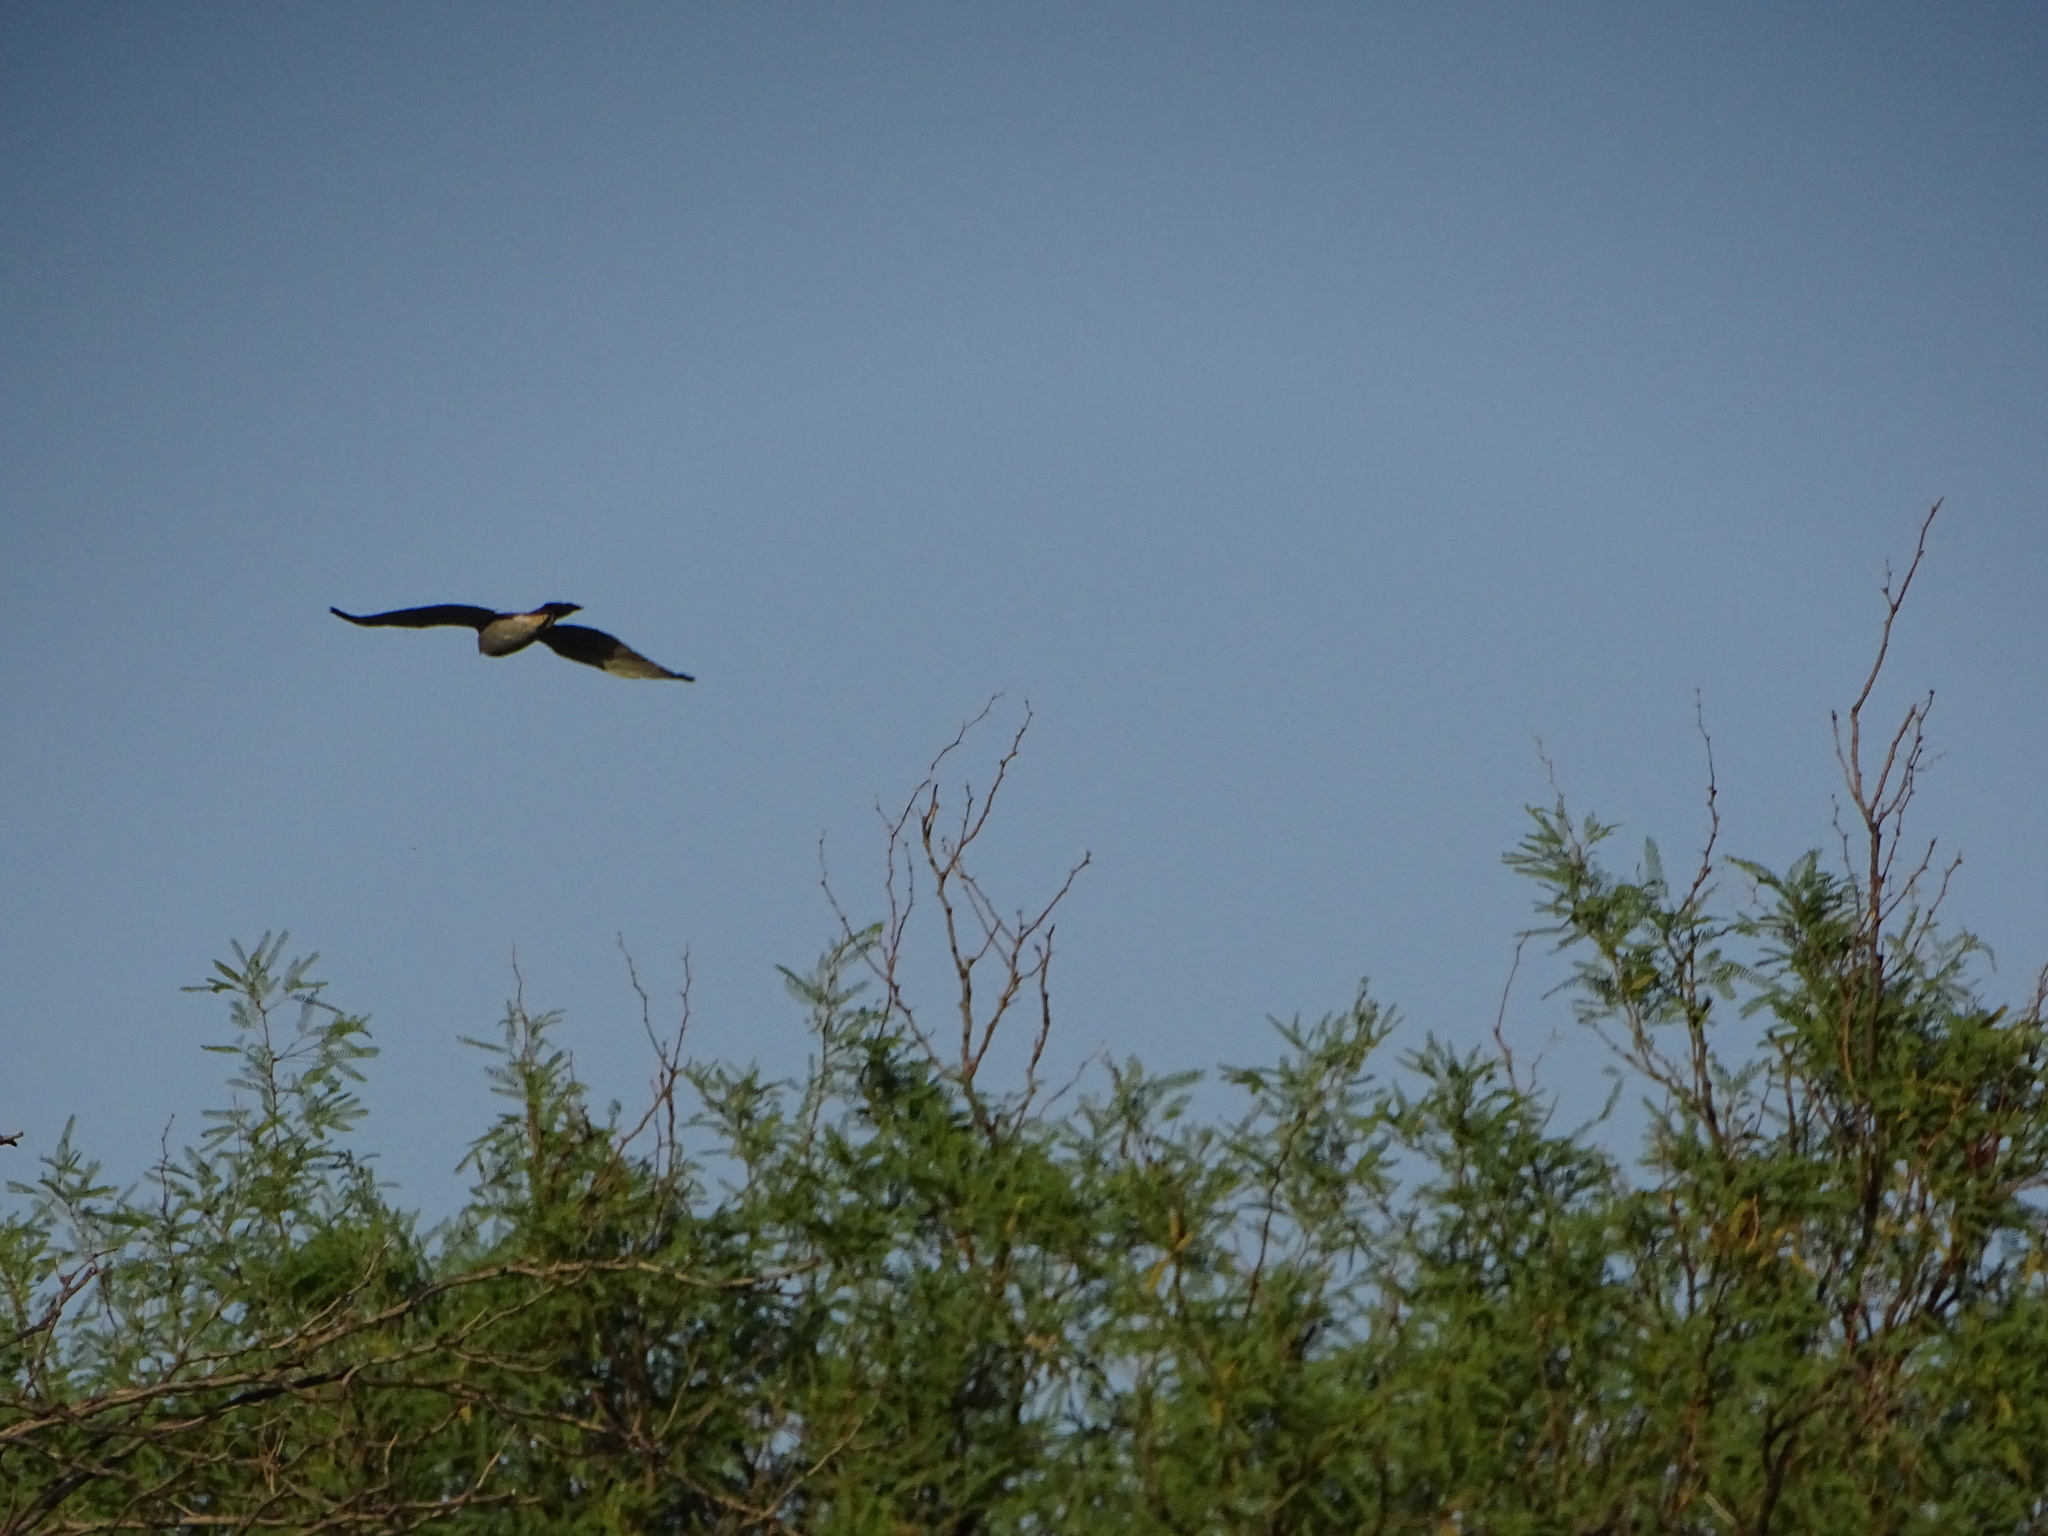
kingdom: Animalia
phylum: Chordata
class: Aves
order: Accipitriformes
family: Accipitridae
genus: Buteo
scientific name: Buteo nitidus
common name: Grey-lined hawk
